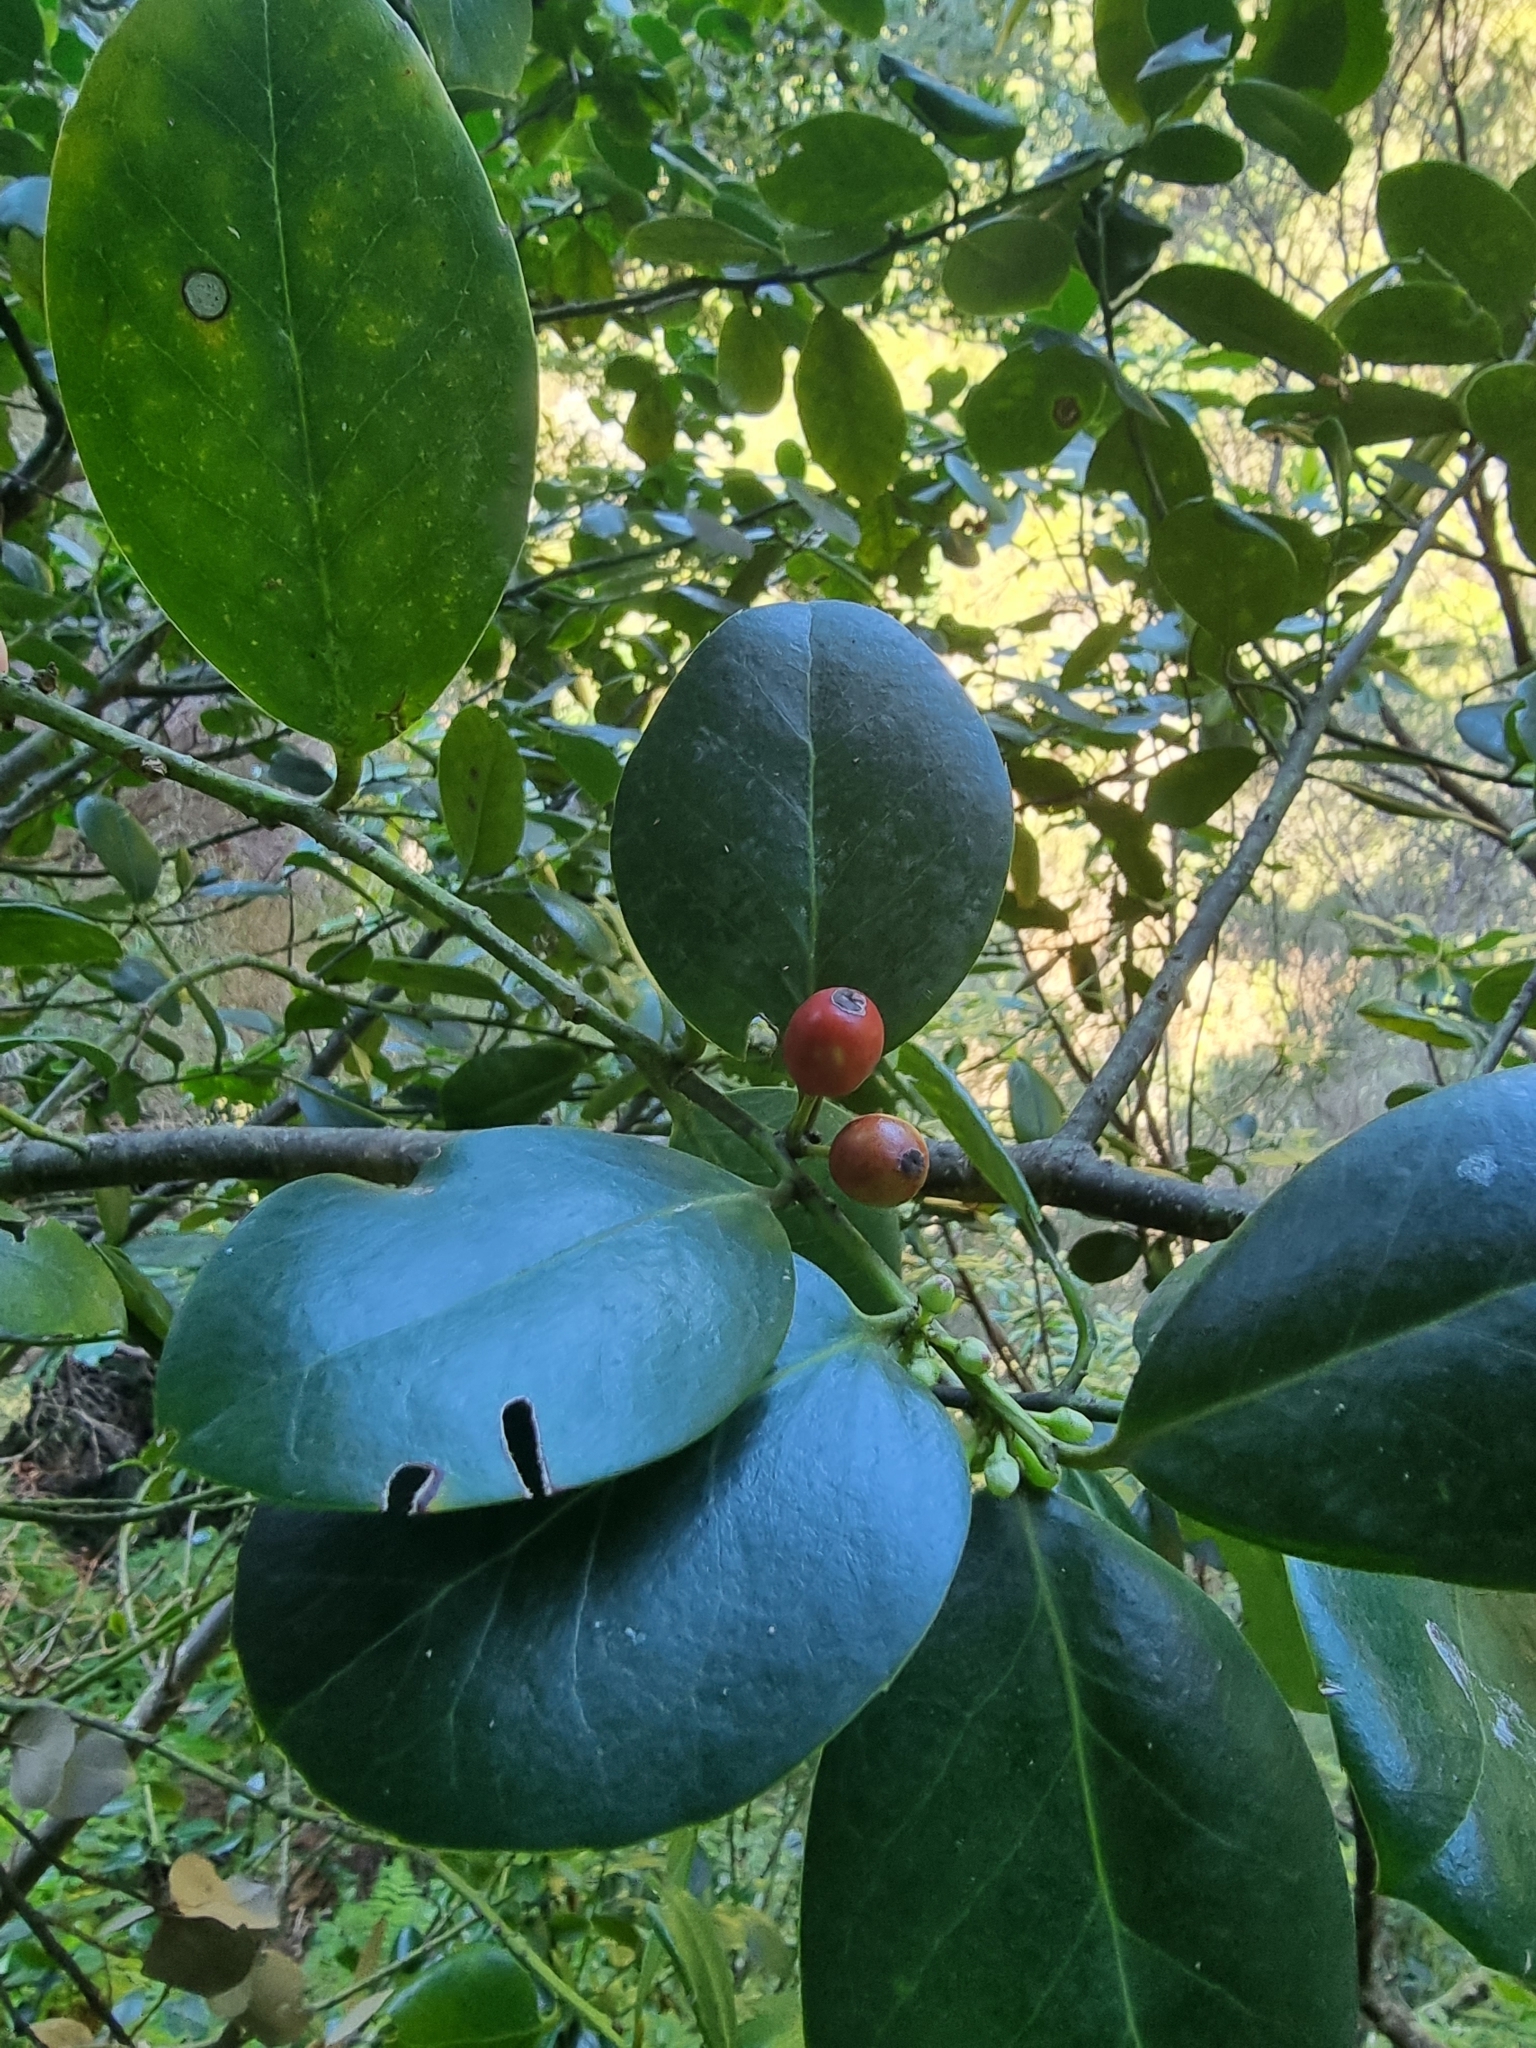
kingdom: Plantae
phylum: Tracheophyta
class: Magnoliopsida
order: Aquifoliales
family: Aquifoliaceae
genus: Ilex
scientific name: Ilex perado
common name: Madeira holly
